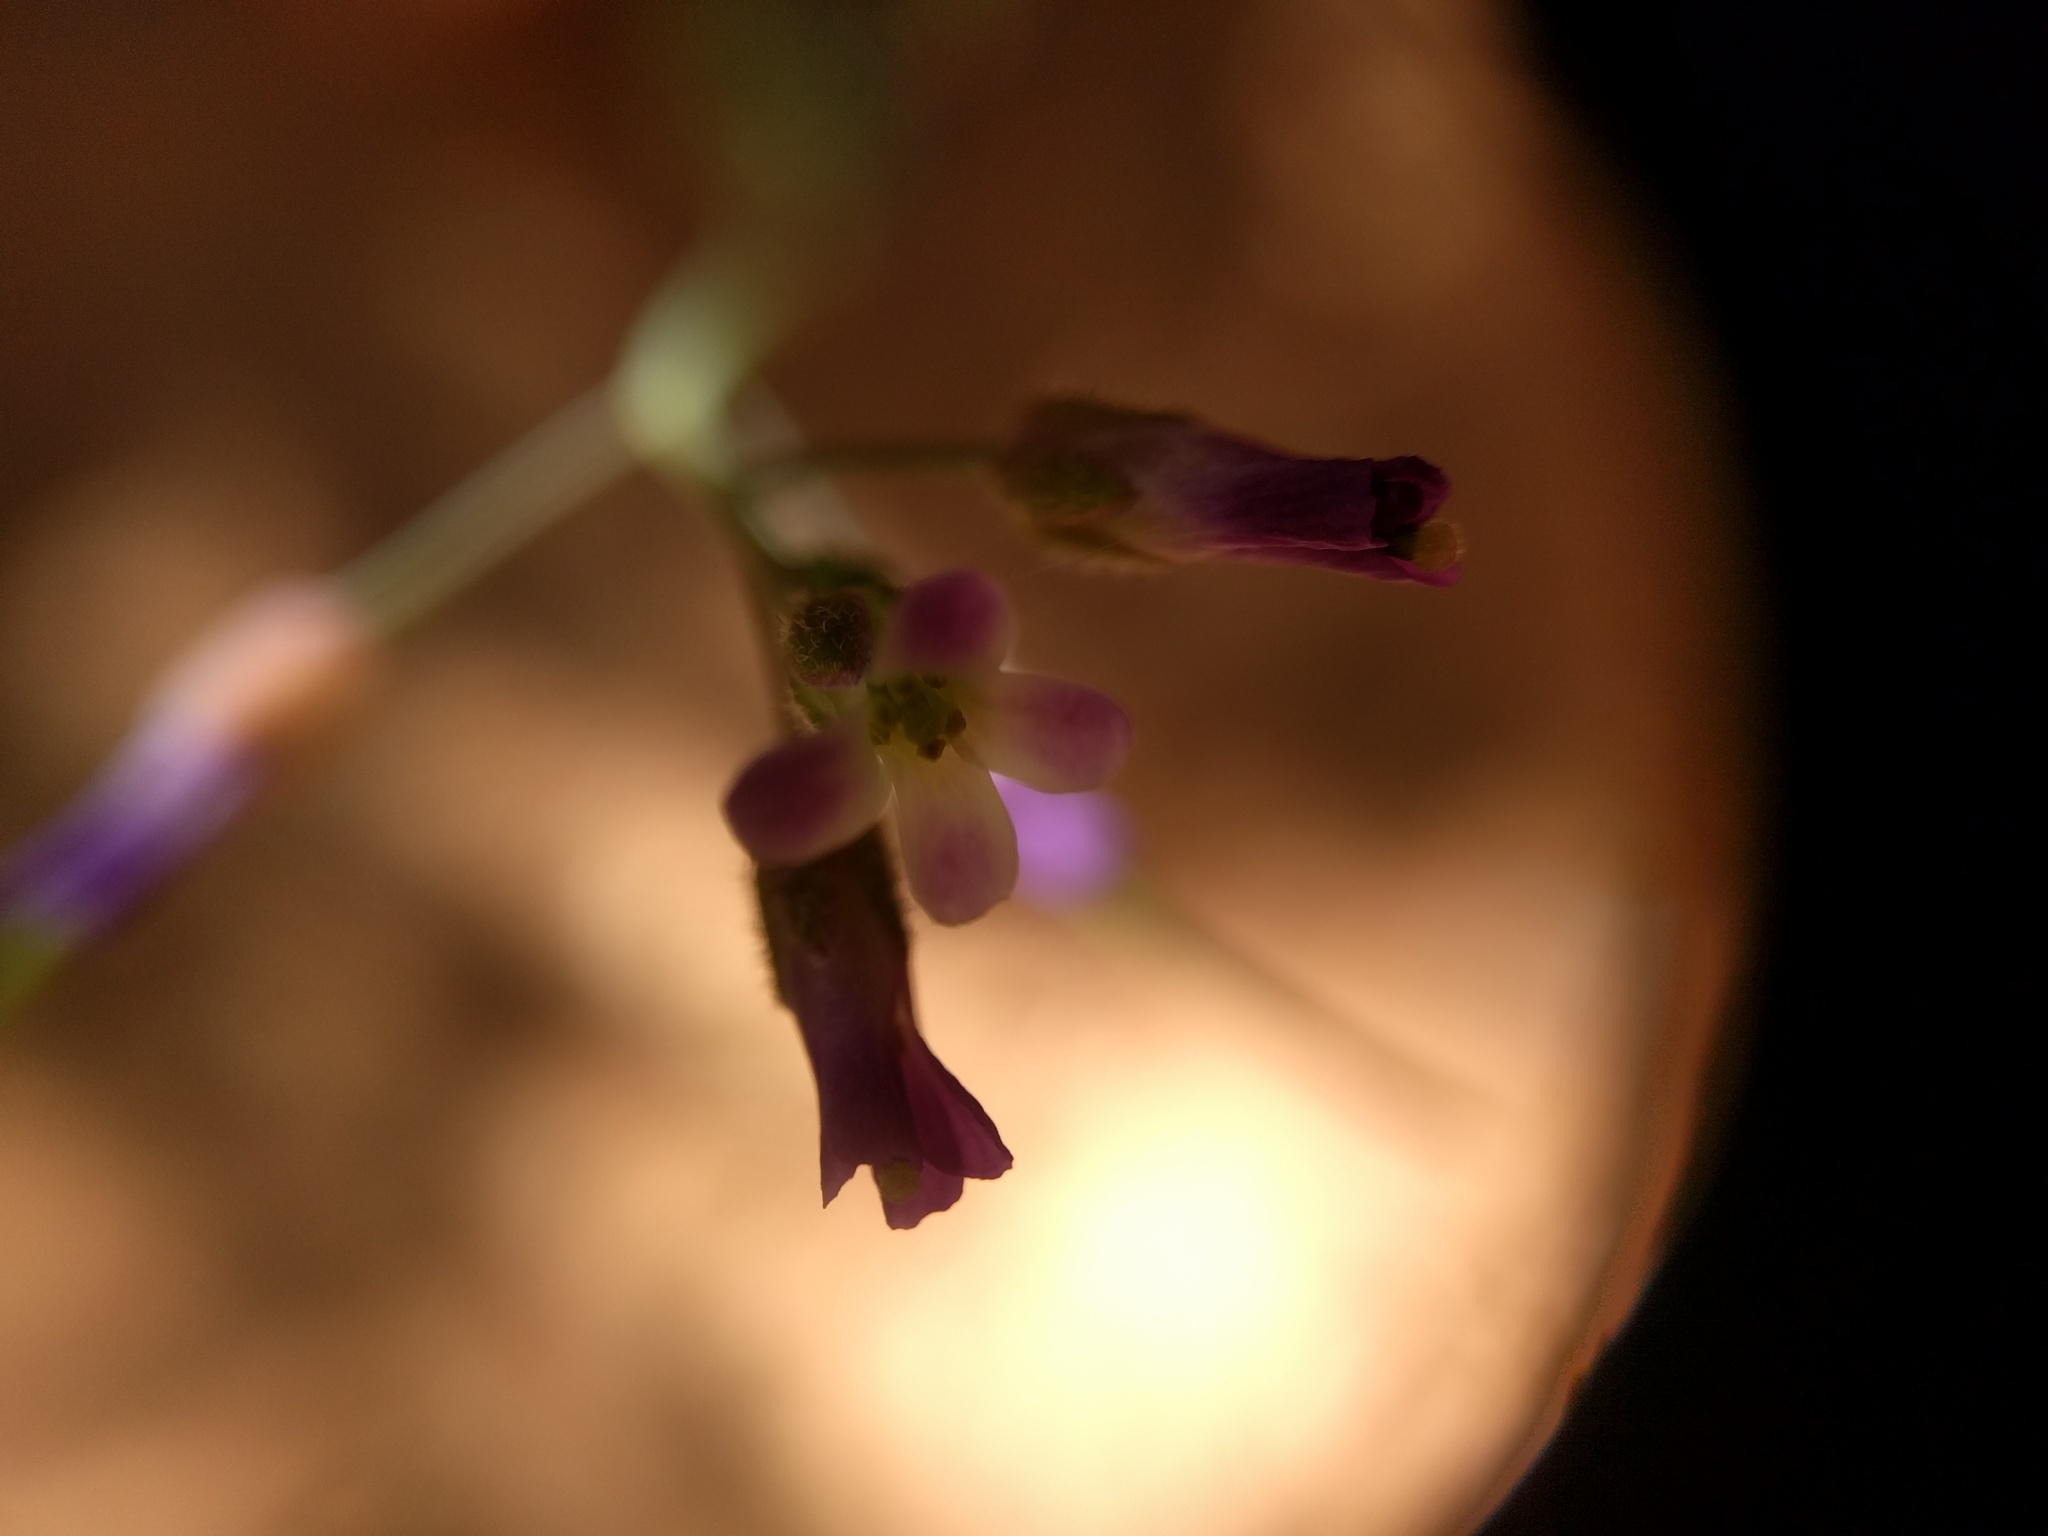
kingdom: Plantae
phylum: Tracheophyta
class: Magnoliopsida
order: Brassicales
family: Brassicaceae
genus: Strigosella
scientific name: Strigosella africana
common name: African mustard
